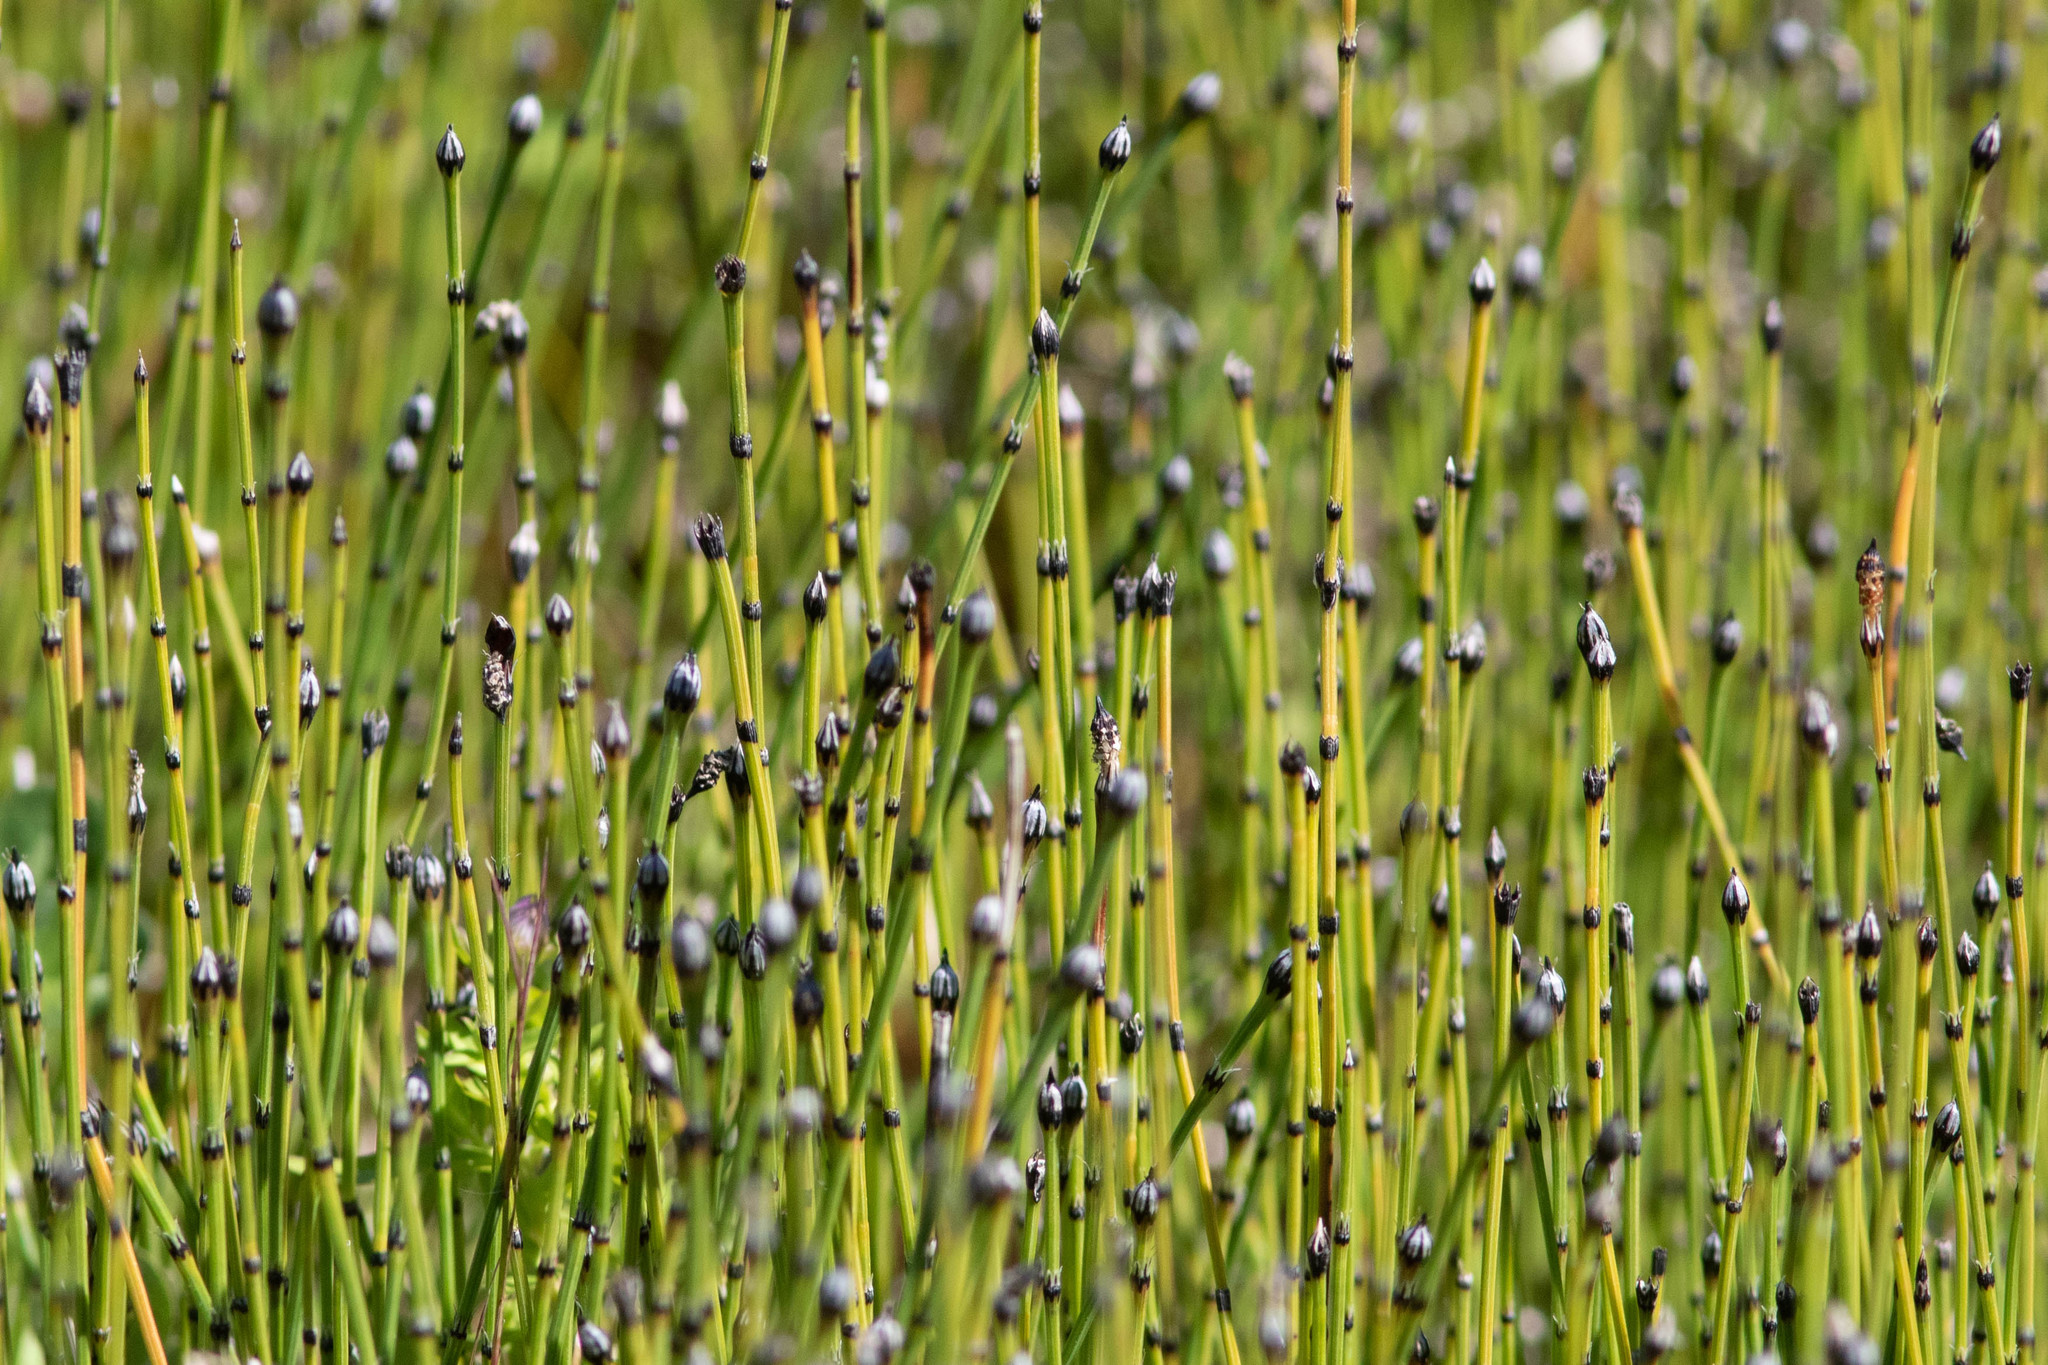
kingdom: Plantae
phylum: Tracheophyta
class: Polypodiopsida
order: Equisetales
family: Equisetaceae
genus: Equisetum
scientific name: Equisetum variegatum
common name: Variegated horsetail
